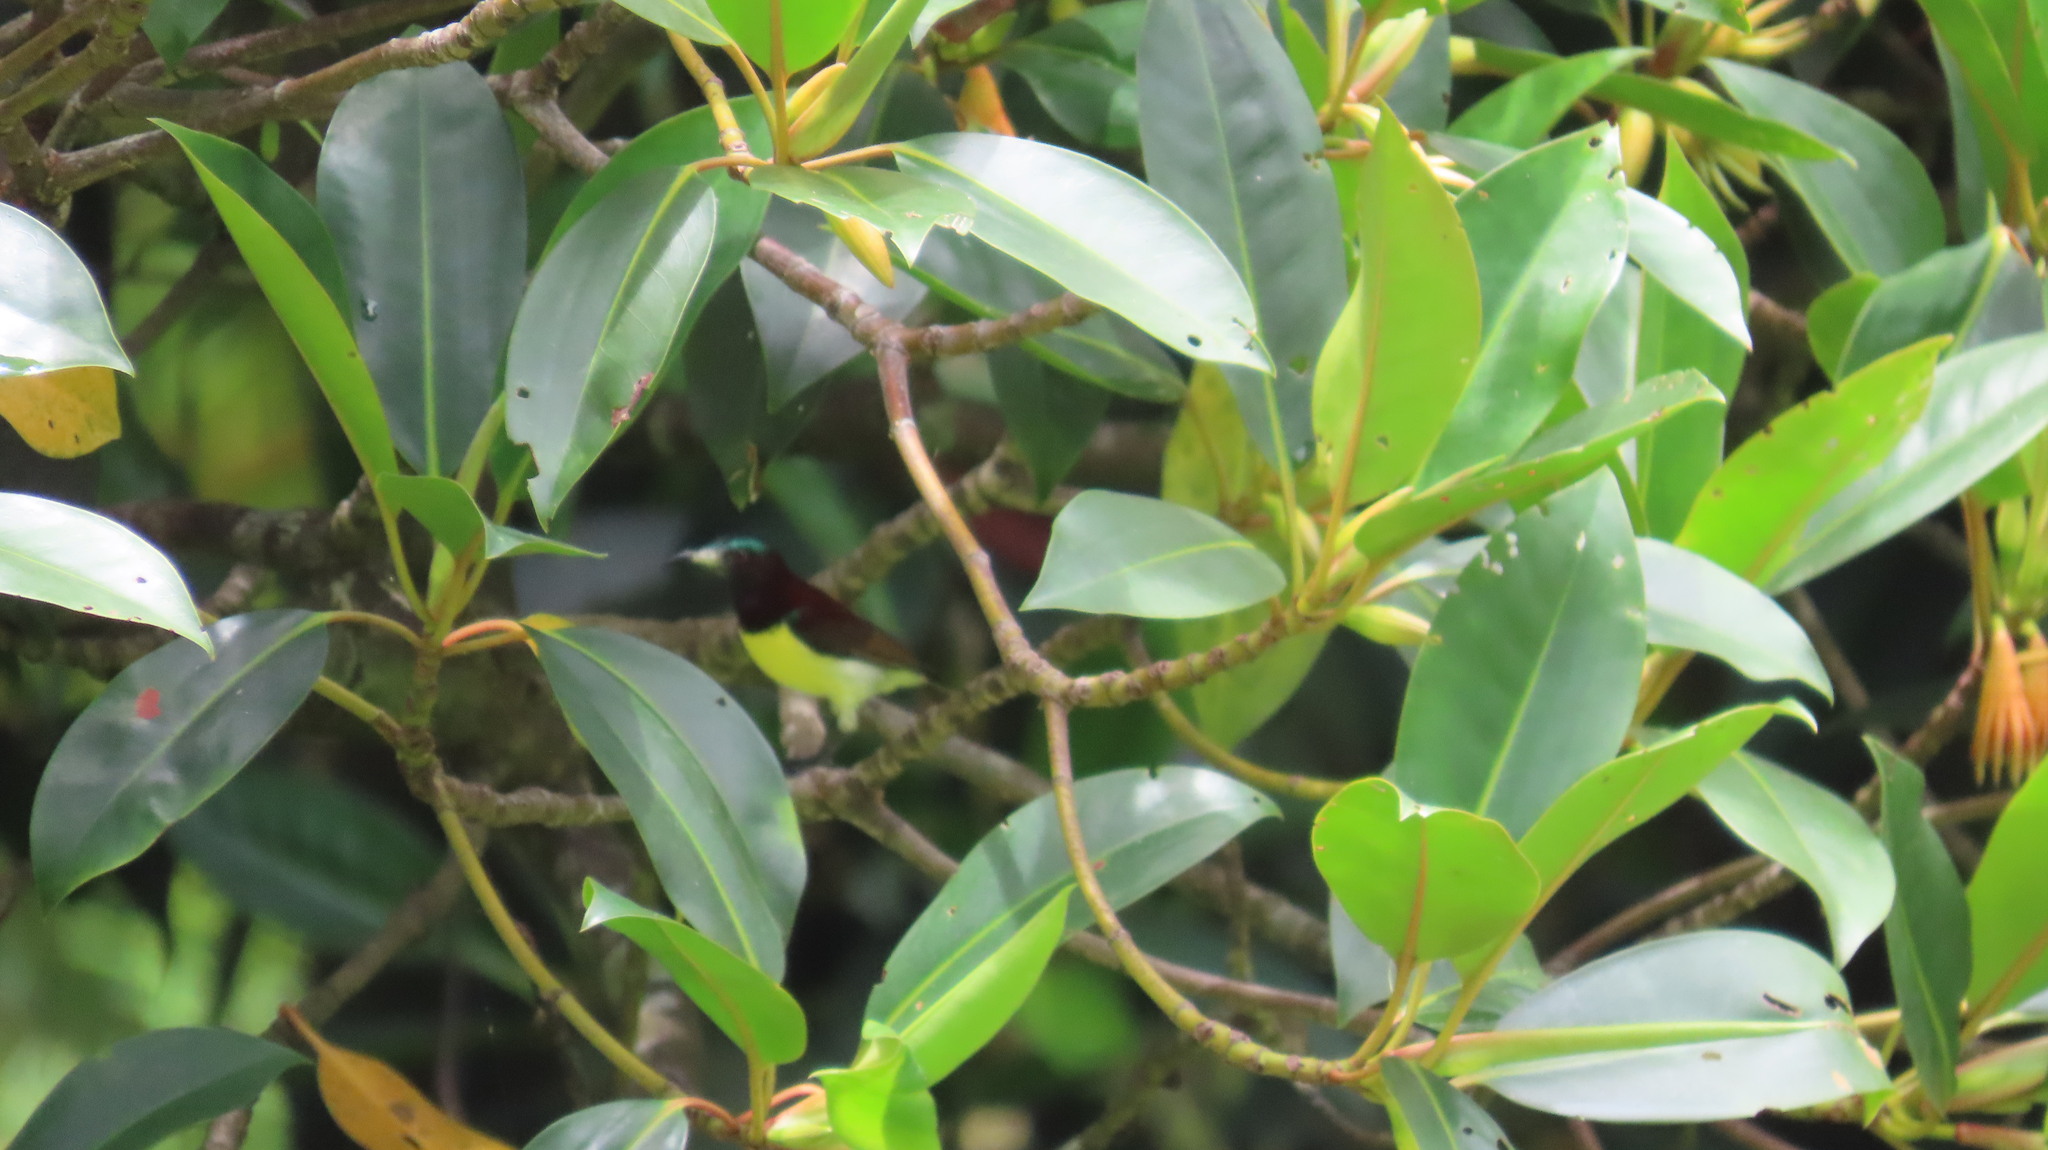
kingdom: Animalia
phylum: Chordata
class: Aves
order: Passeriformes
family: Nectariniidae
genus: Leptocoma
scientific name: Leptocoma zeylonica
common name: Purple-rumped sunbird
